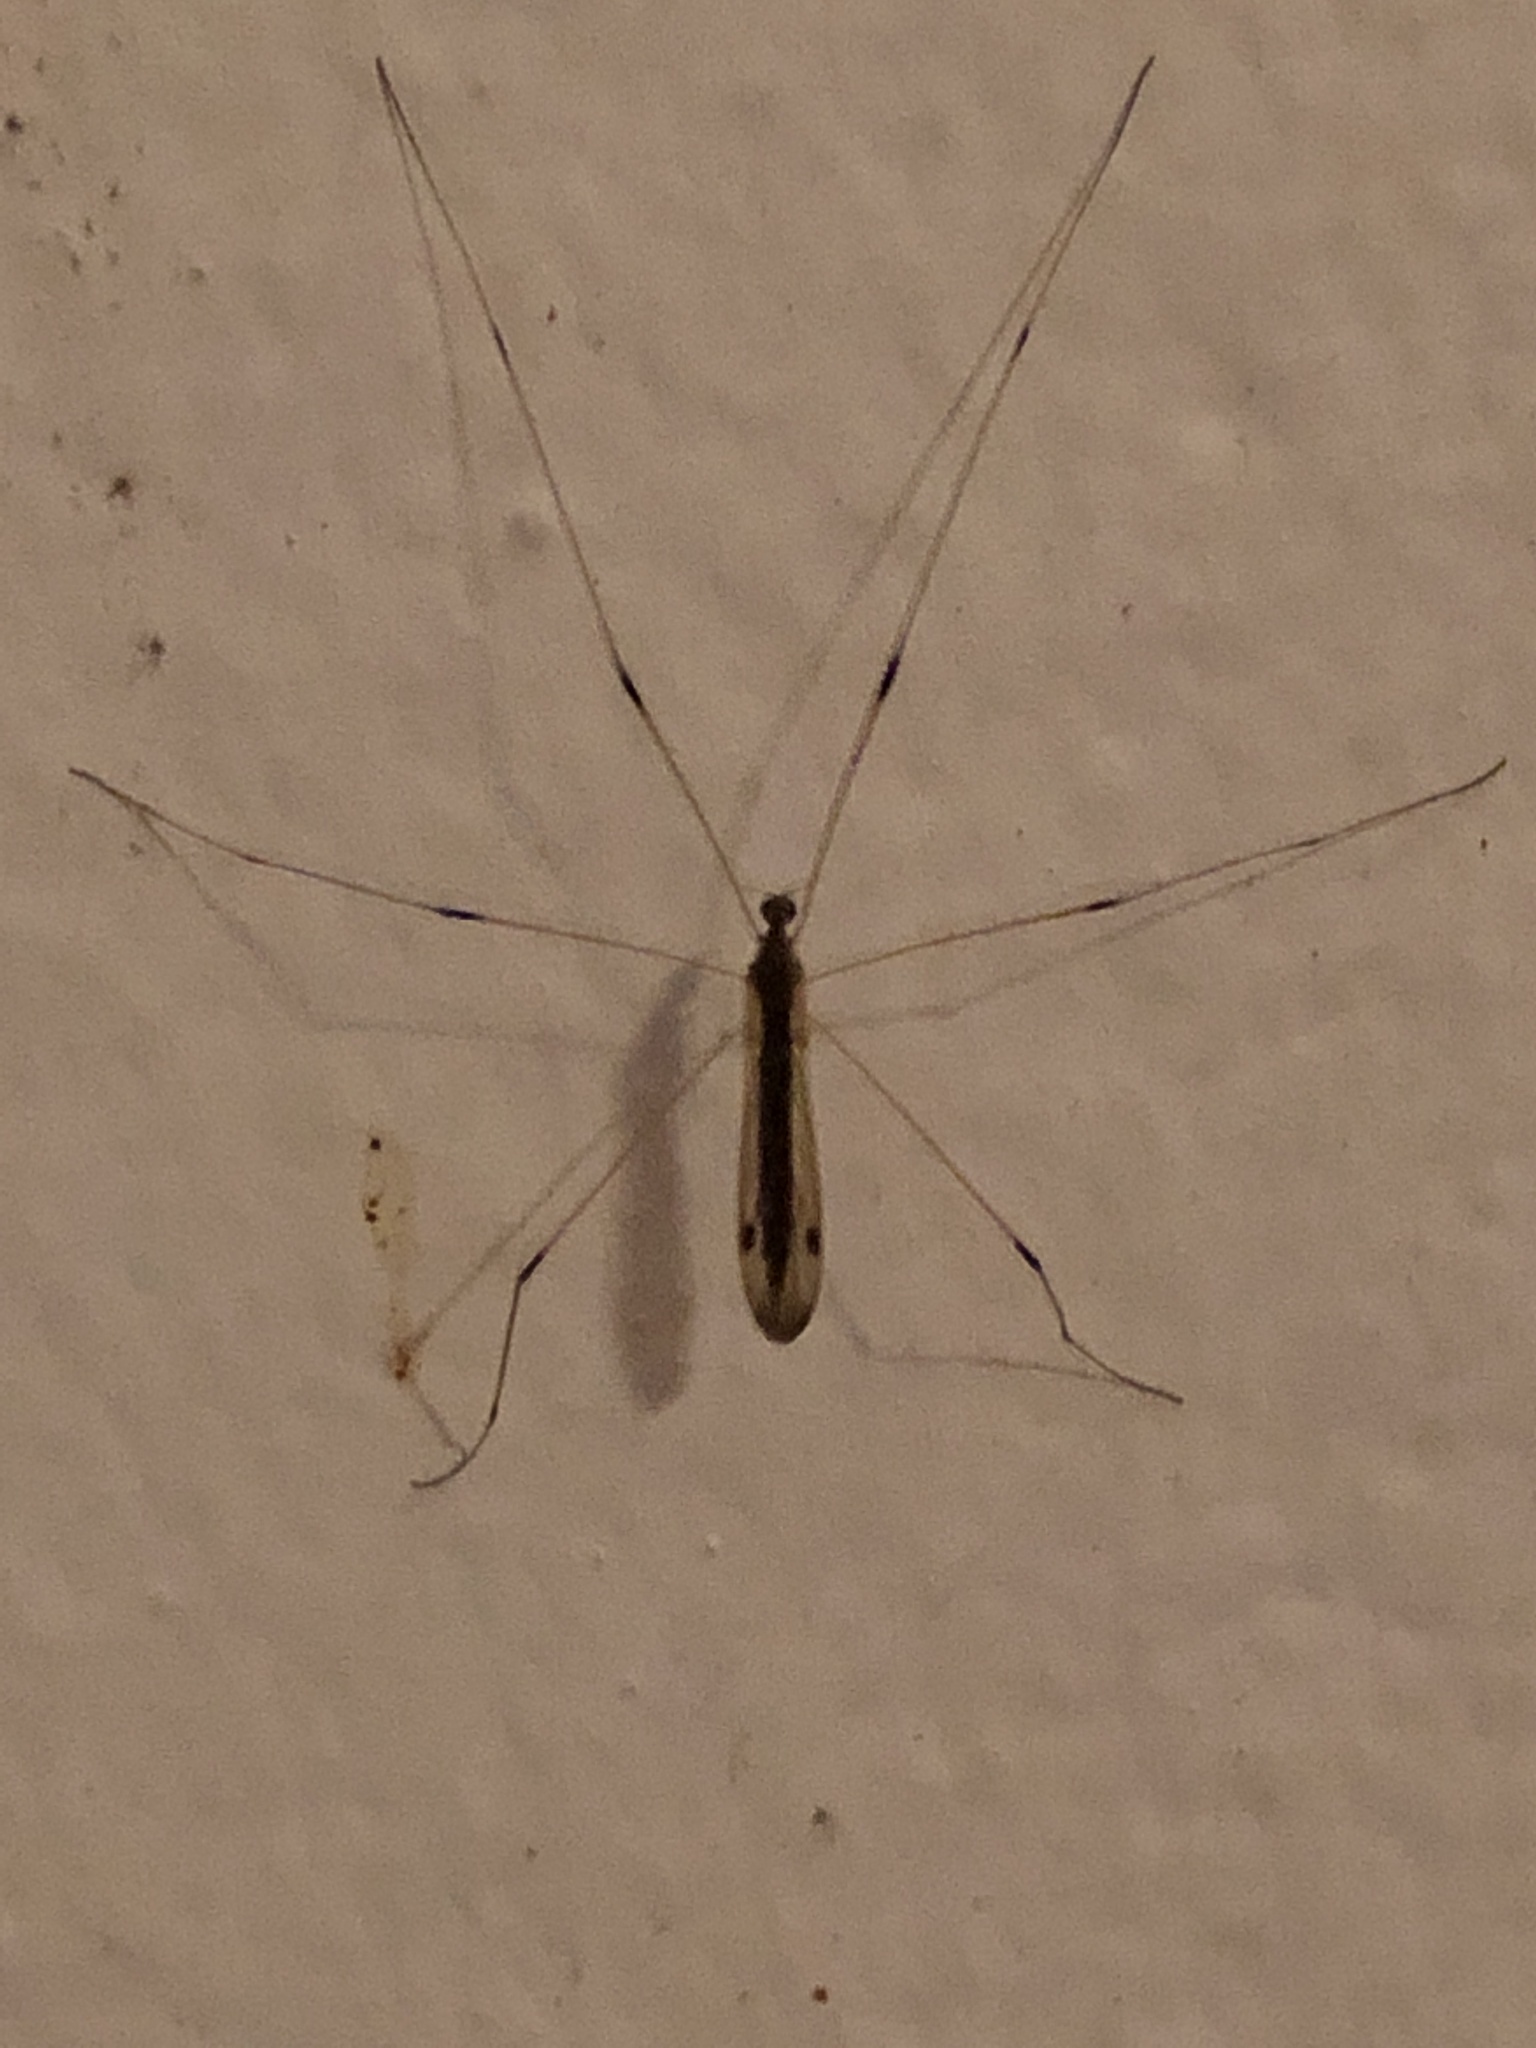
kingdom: Animalia
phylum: Arthropoda
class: Insecta
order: Diptera
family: Limoniidae
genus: Helius
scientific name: Helius flavipes
